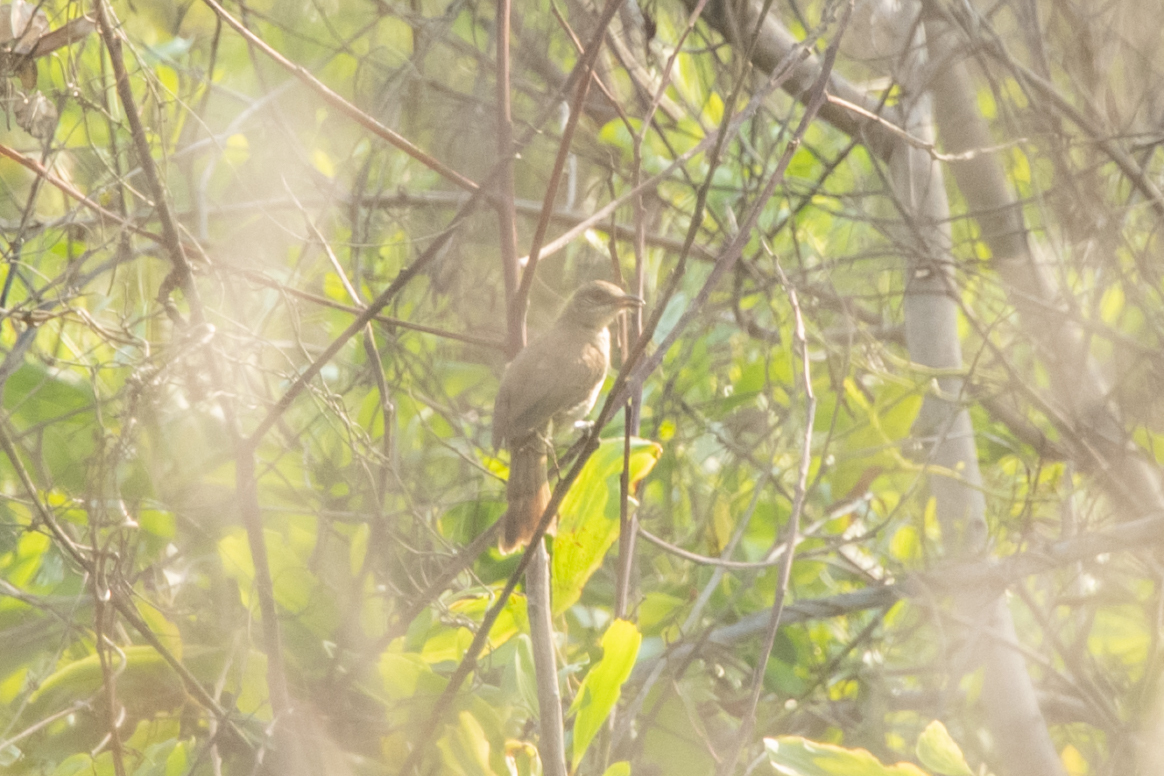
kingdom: Animalia
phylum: Chordata
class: Aves
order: Passeriformes
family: Pycnonotidae
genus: Pycnonotus
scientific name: Pycnonotus blanfordi
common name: Streak-eared bulbul
